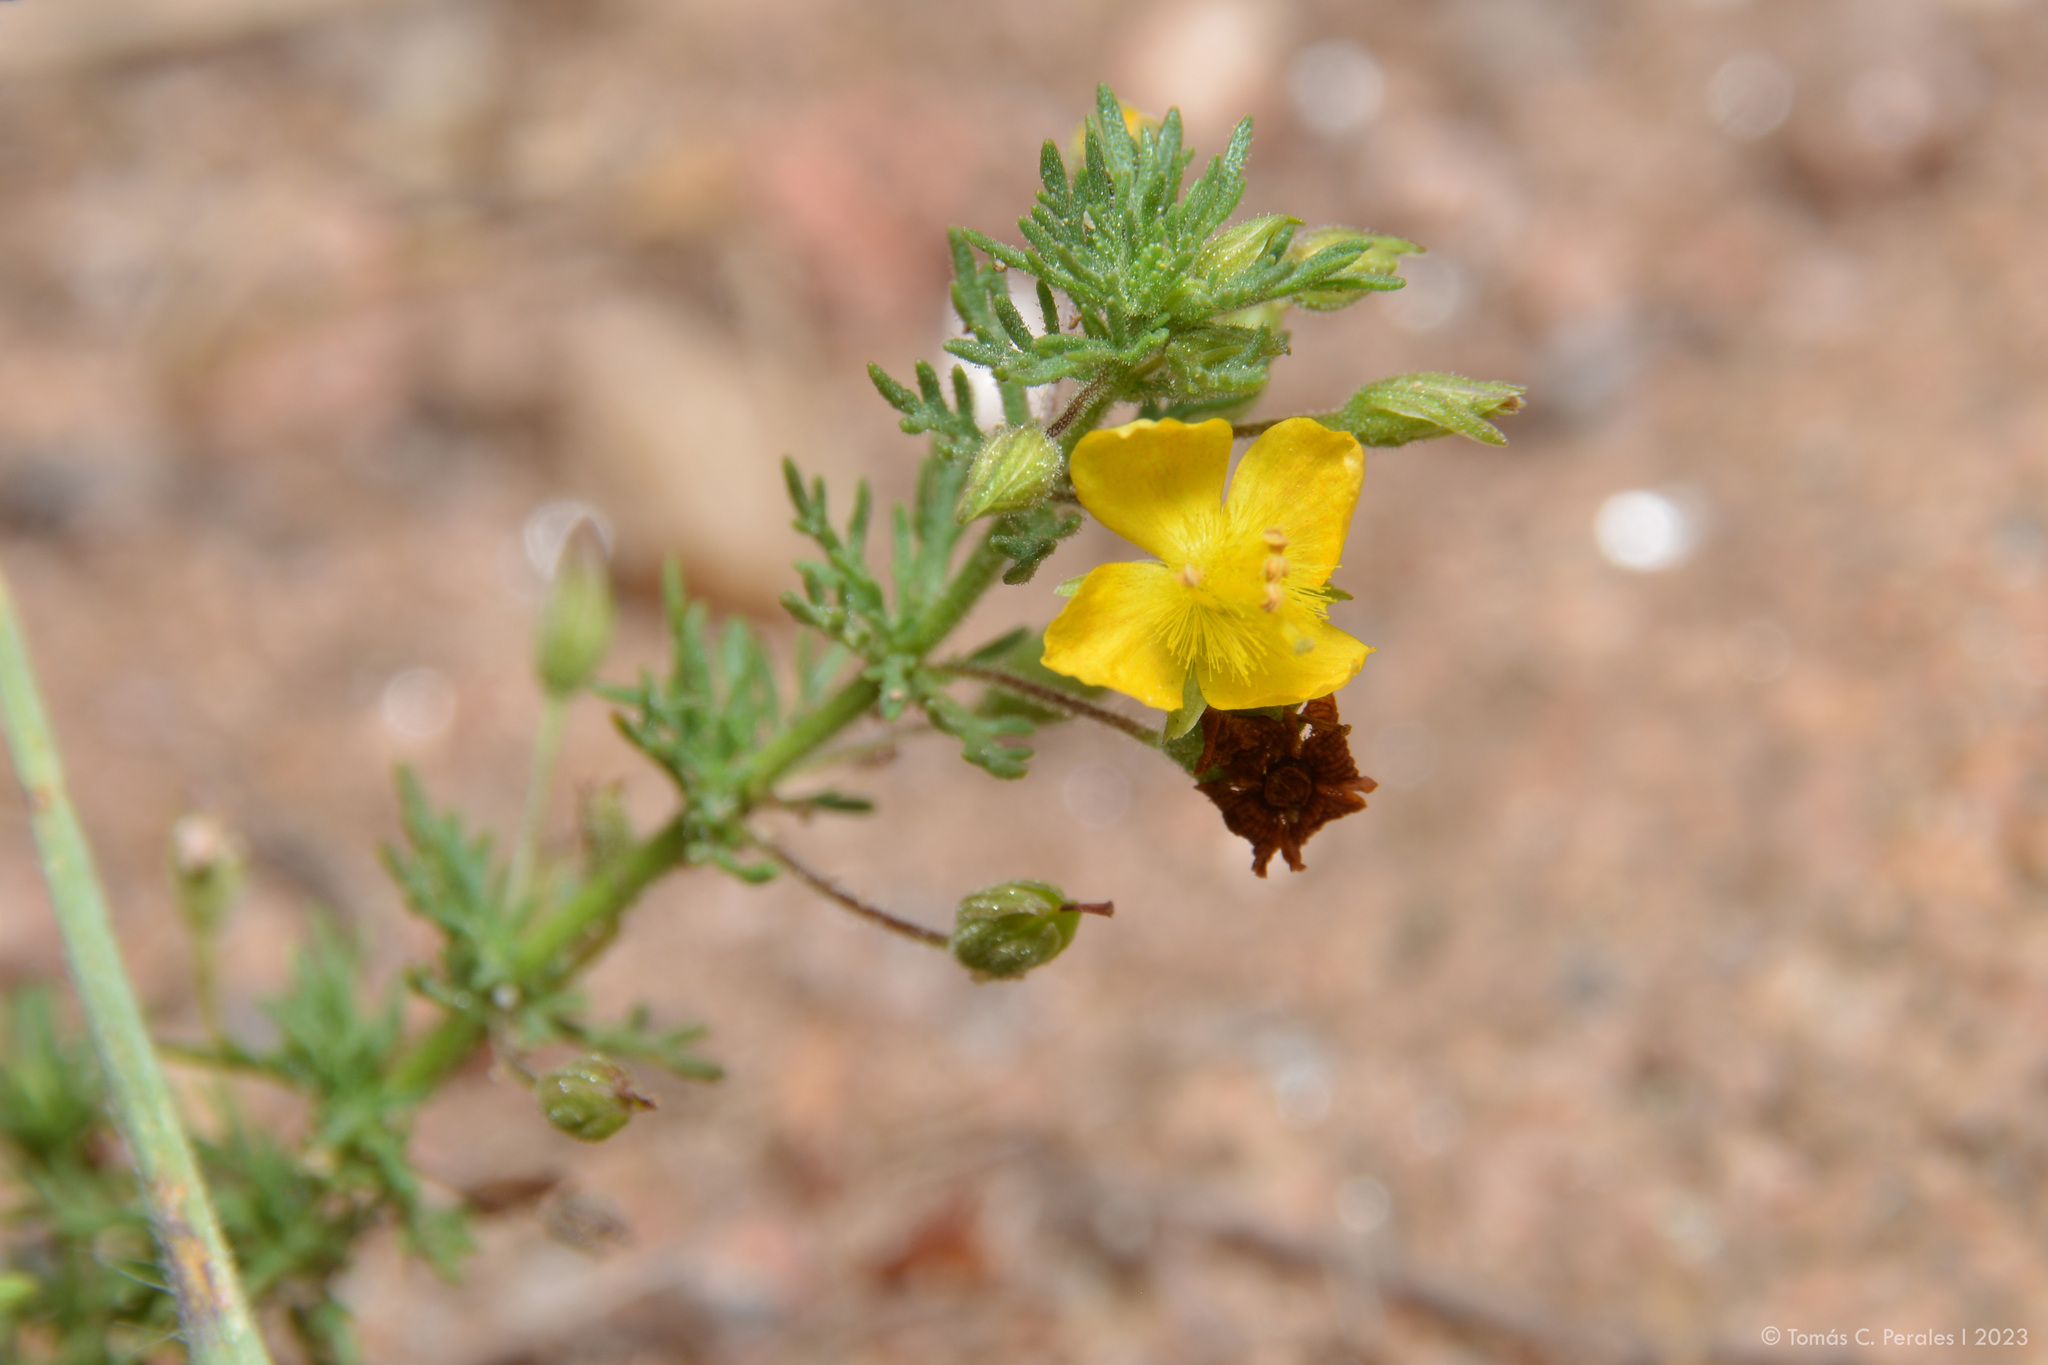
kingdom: Plantae
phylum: Tracheophyta
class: Magnoliopsida
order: Lamiales
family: Plantaginaceae
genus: Scoparia
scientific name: Scoparia montevidensis
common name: Broomwort
